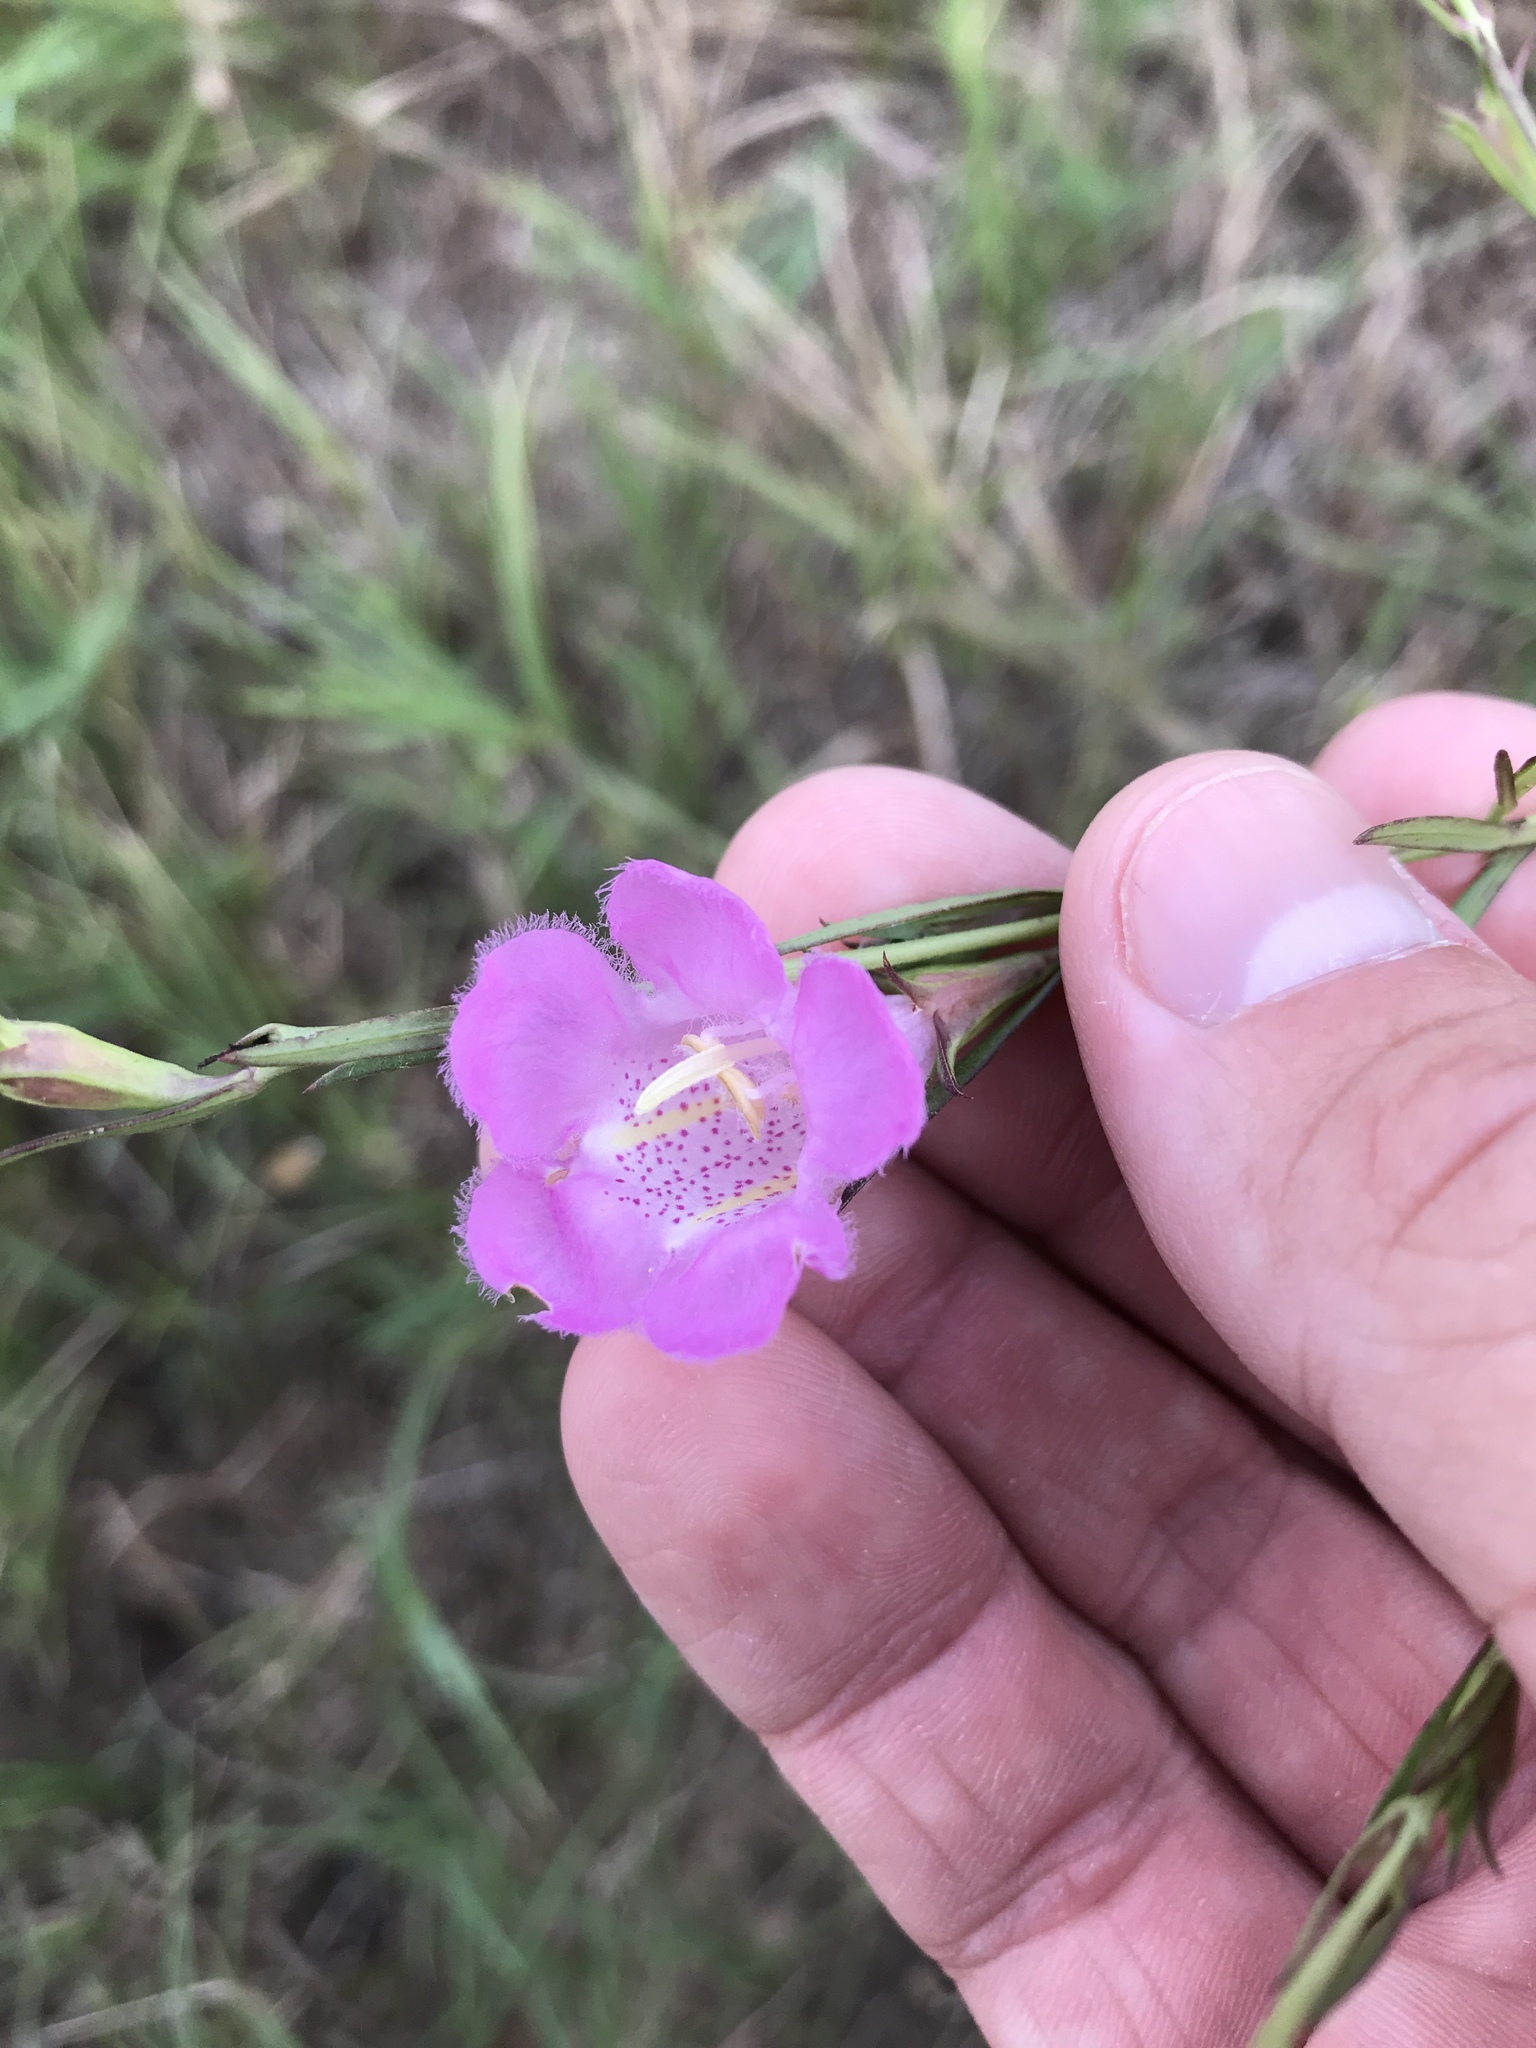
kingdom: Plantae
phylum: Tracheophyta
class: Magnoliopsida
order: Lamiales
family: Orobanchaceae
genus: Agalinis
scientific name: Agalinis heterophylla
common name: Prairie agalinis
